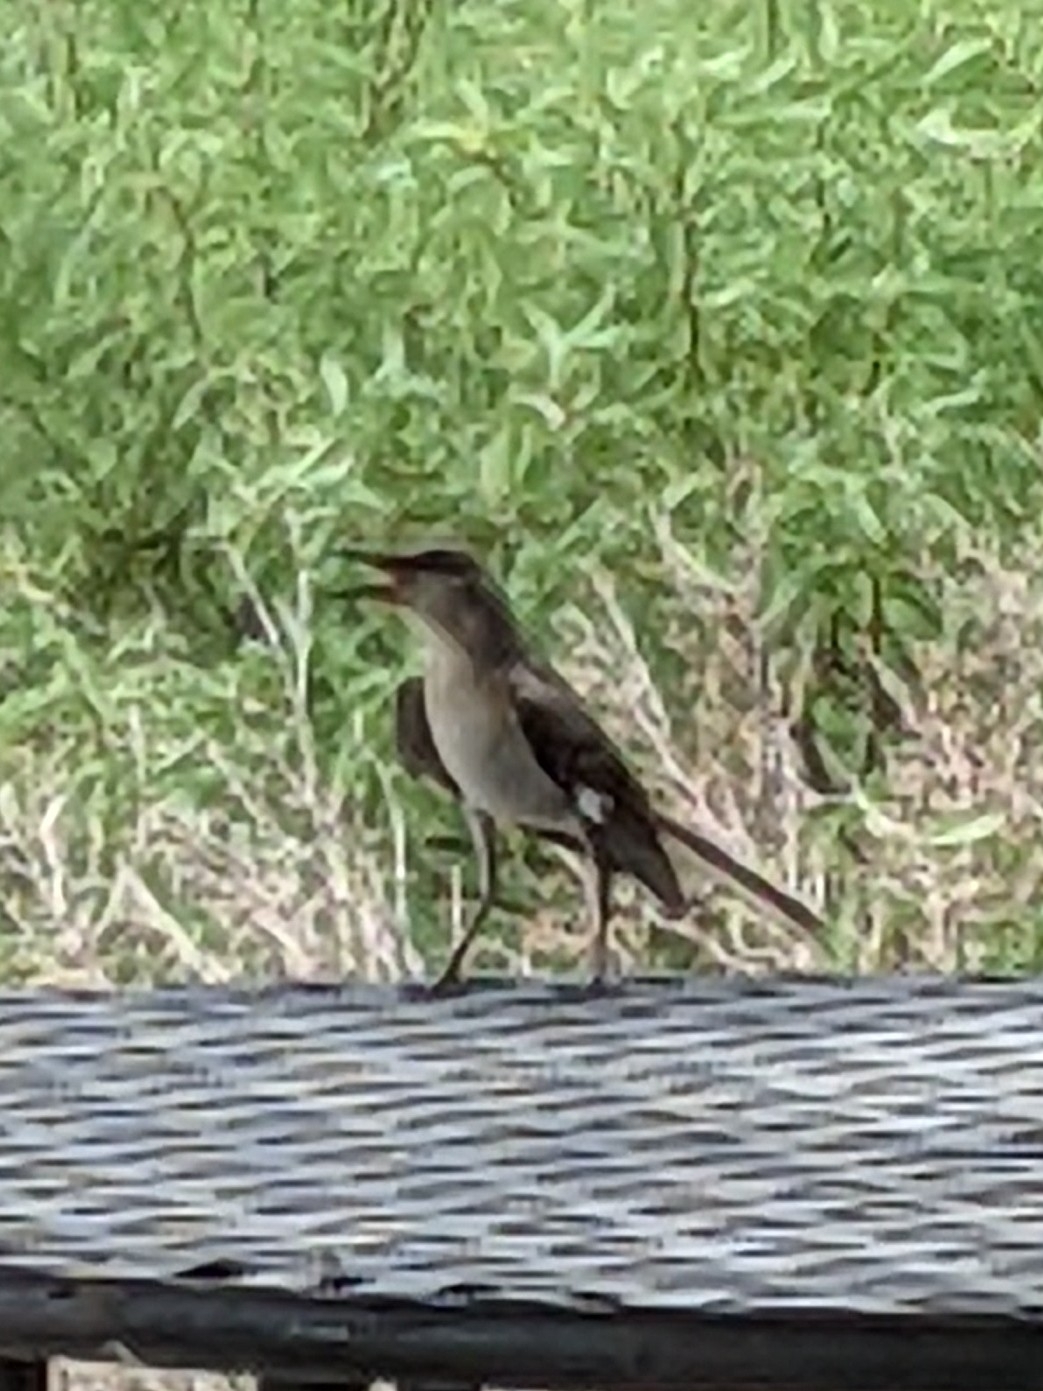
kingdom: Animalia
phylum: Chordata
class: Aves
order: Passeriformes
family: Mimidae
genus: Mimus
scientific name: Mimus polyglottos
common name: Northern mockingbird
